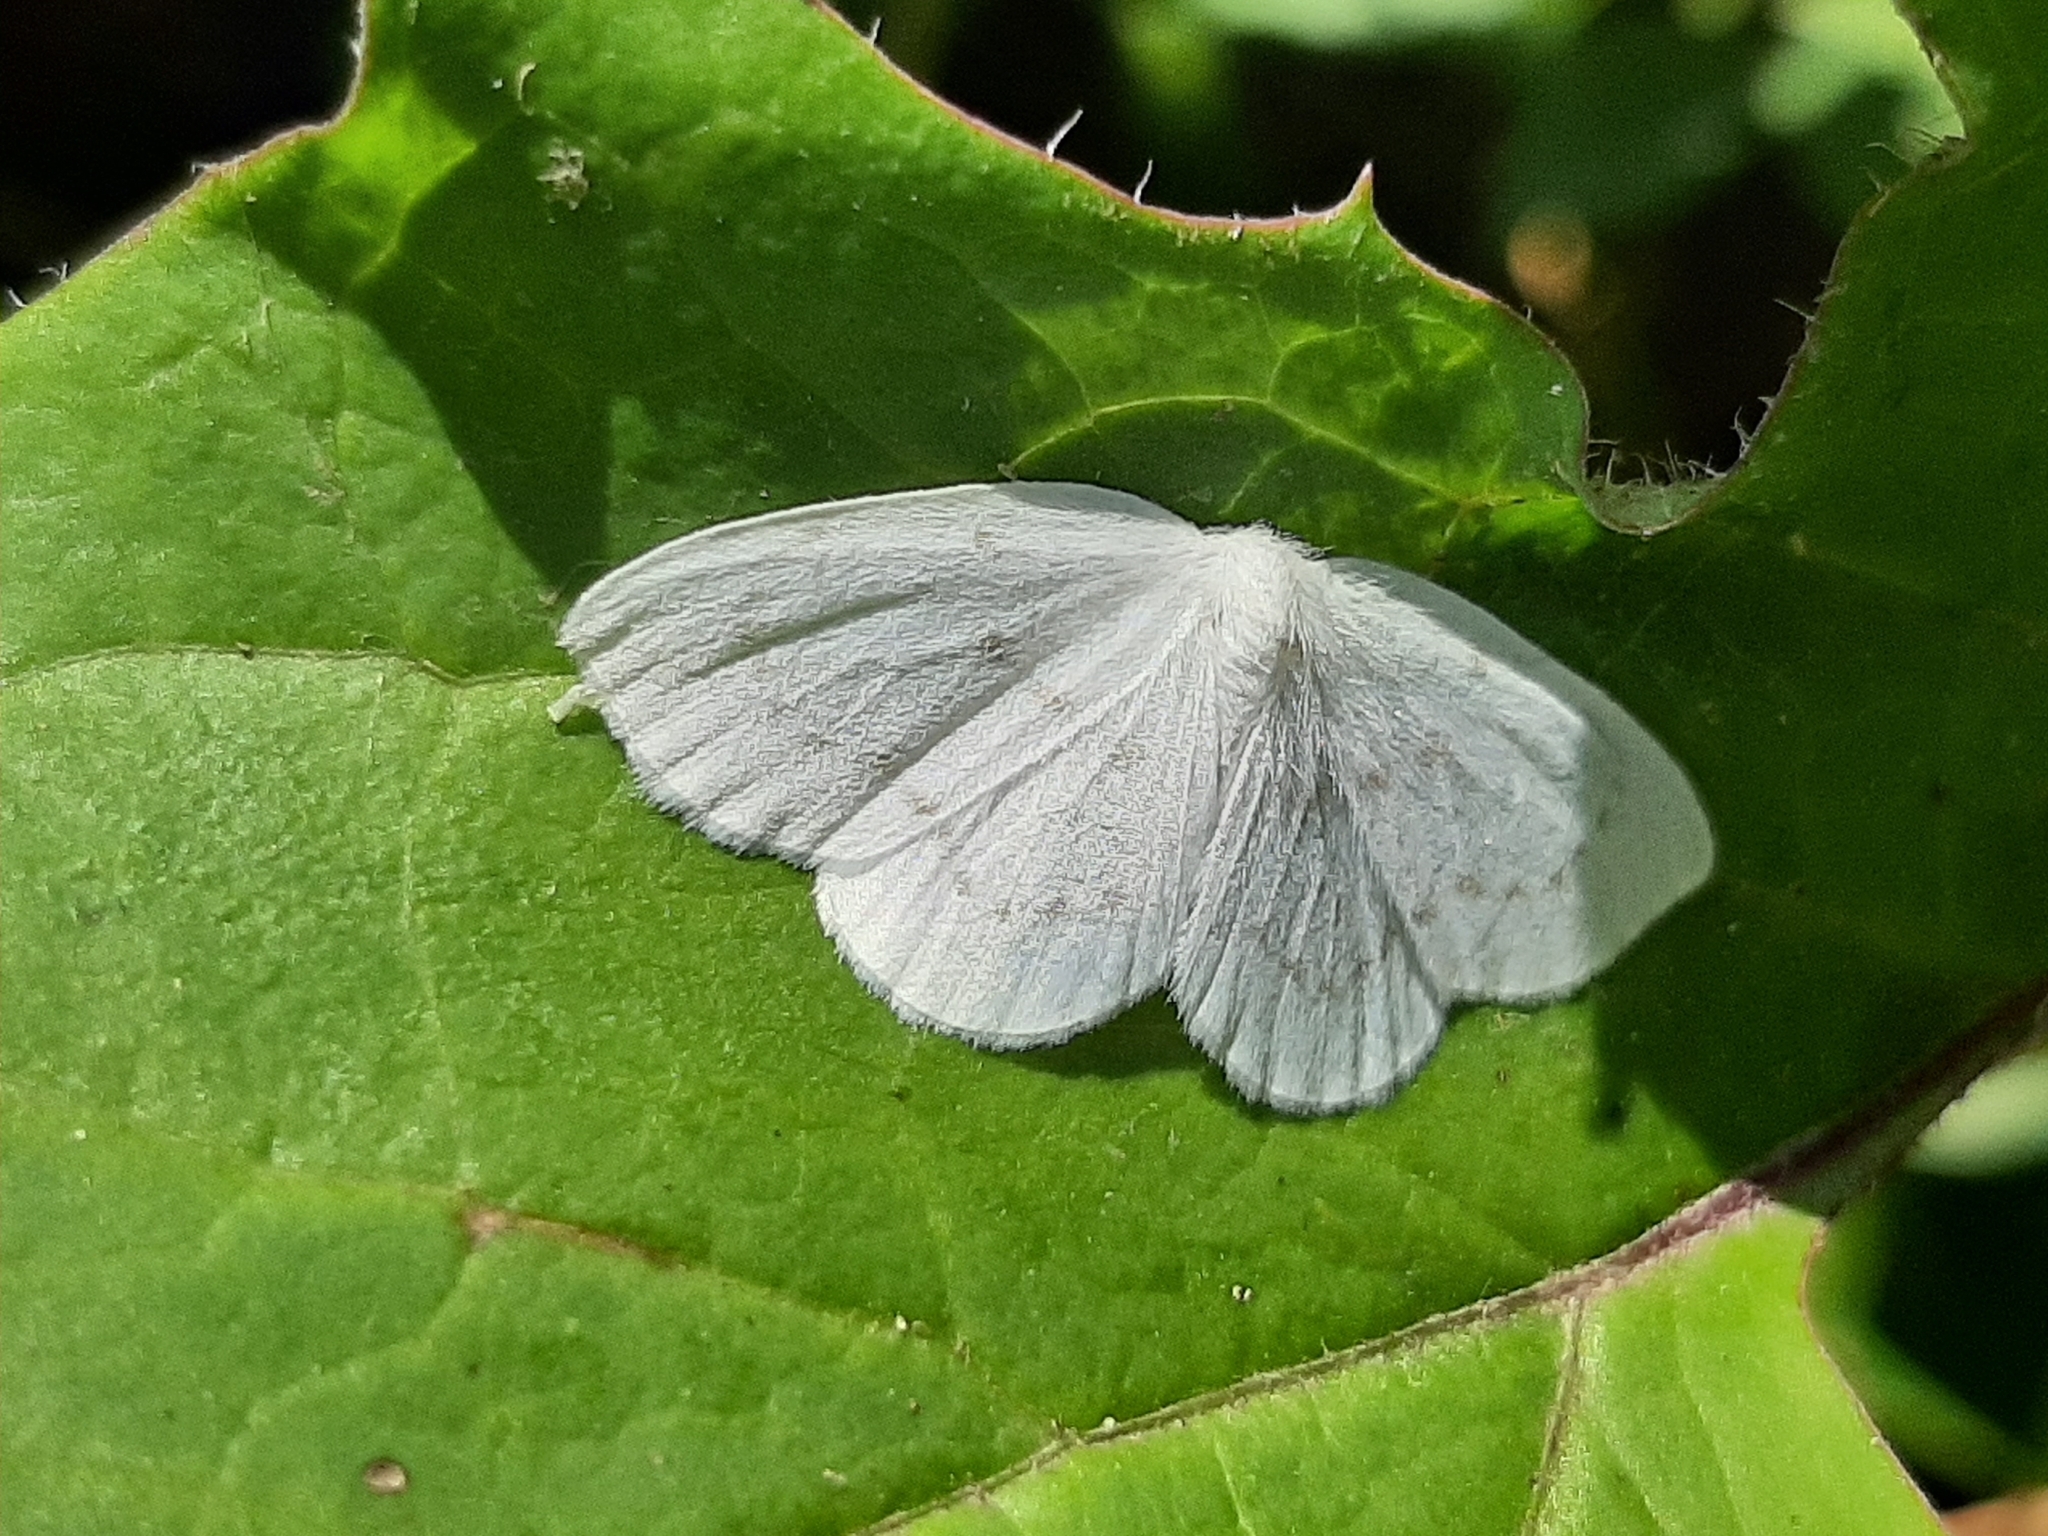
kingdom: Animalia
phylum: Arthropoda
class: Insecta
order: Lepidoptera
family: Drepanidae
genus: Eudeilinia
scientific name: Eudeilinia herminiata
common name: Northern eudeilinea moth
